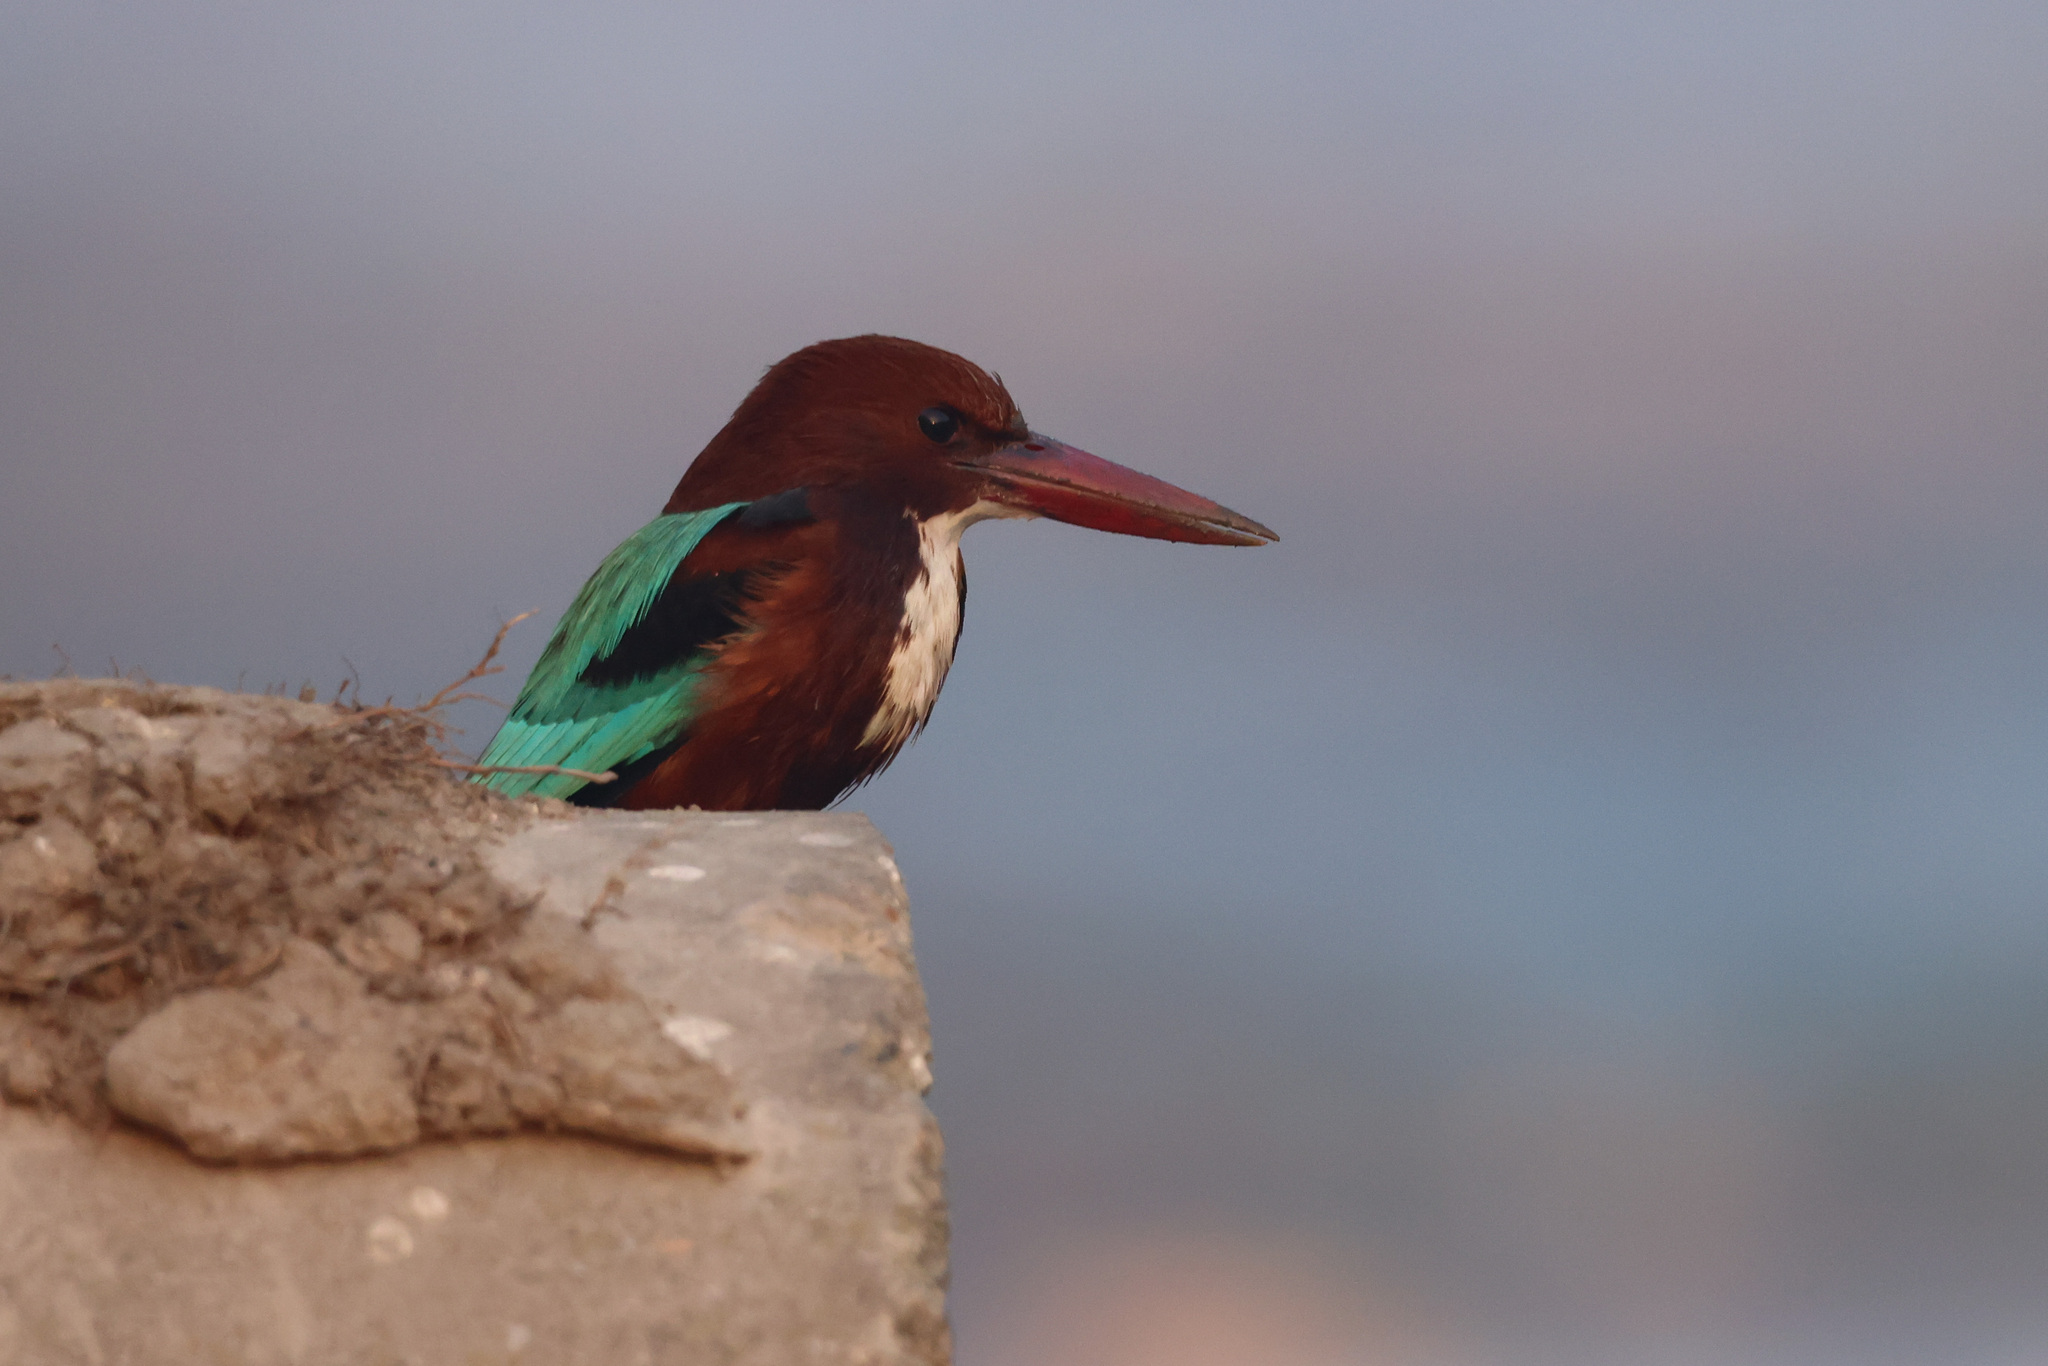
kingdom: Animalia
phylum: Chordata
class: Aves
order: Coraciiformes
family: Alcedinidae
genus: Halcyon
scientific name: Halcyon smyrnensis
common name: White-throated kingfisher
